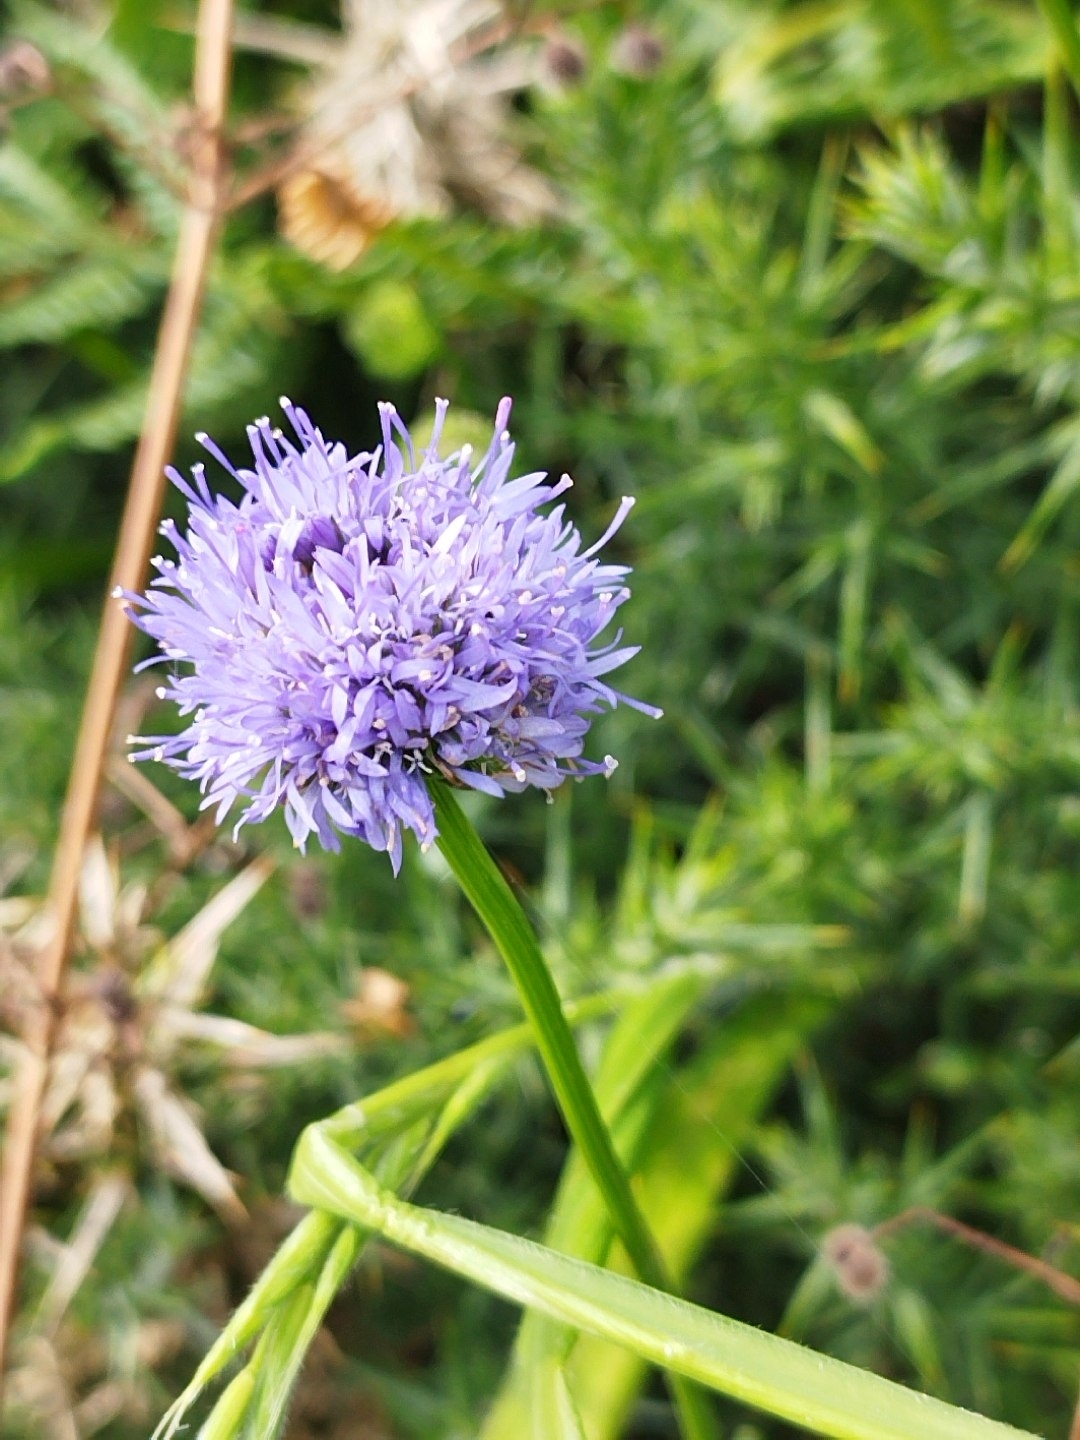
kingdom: Plantae
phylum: Tracheophyta
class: Magnoliopsida
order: Asterales
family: Campanulaceae
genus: Jasione
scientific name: Jasione montana
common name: Sheep's-bit
